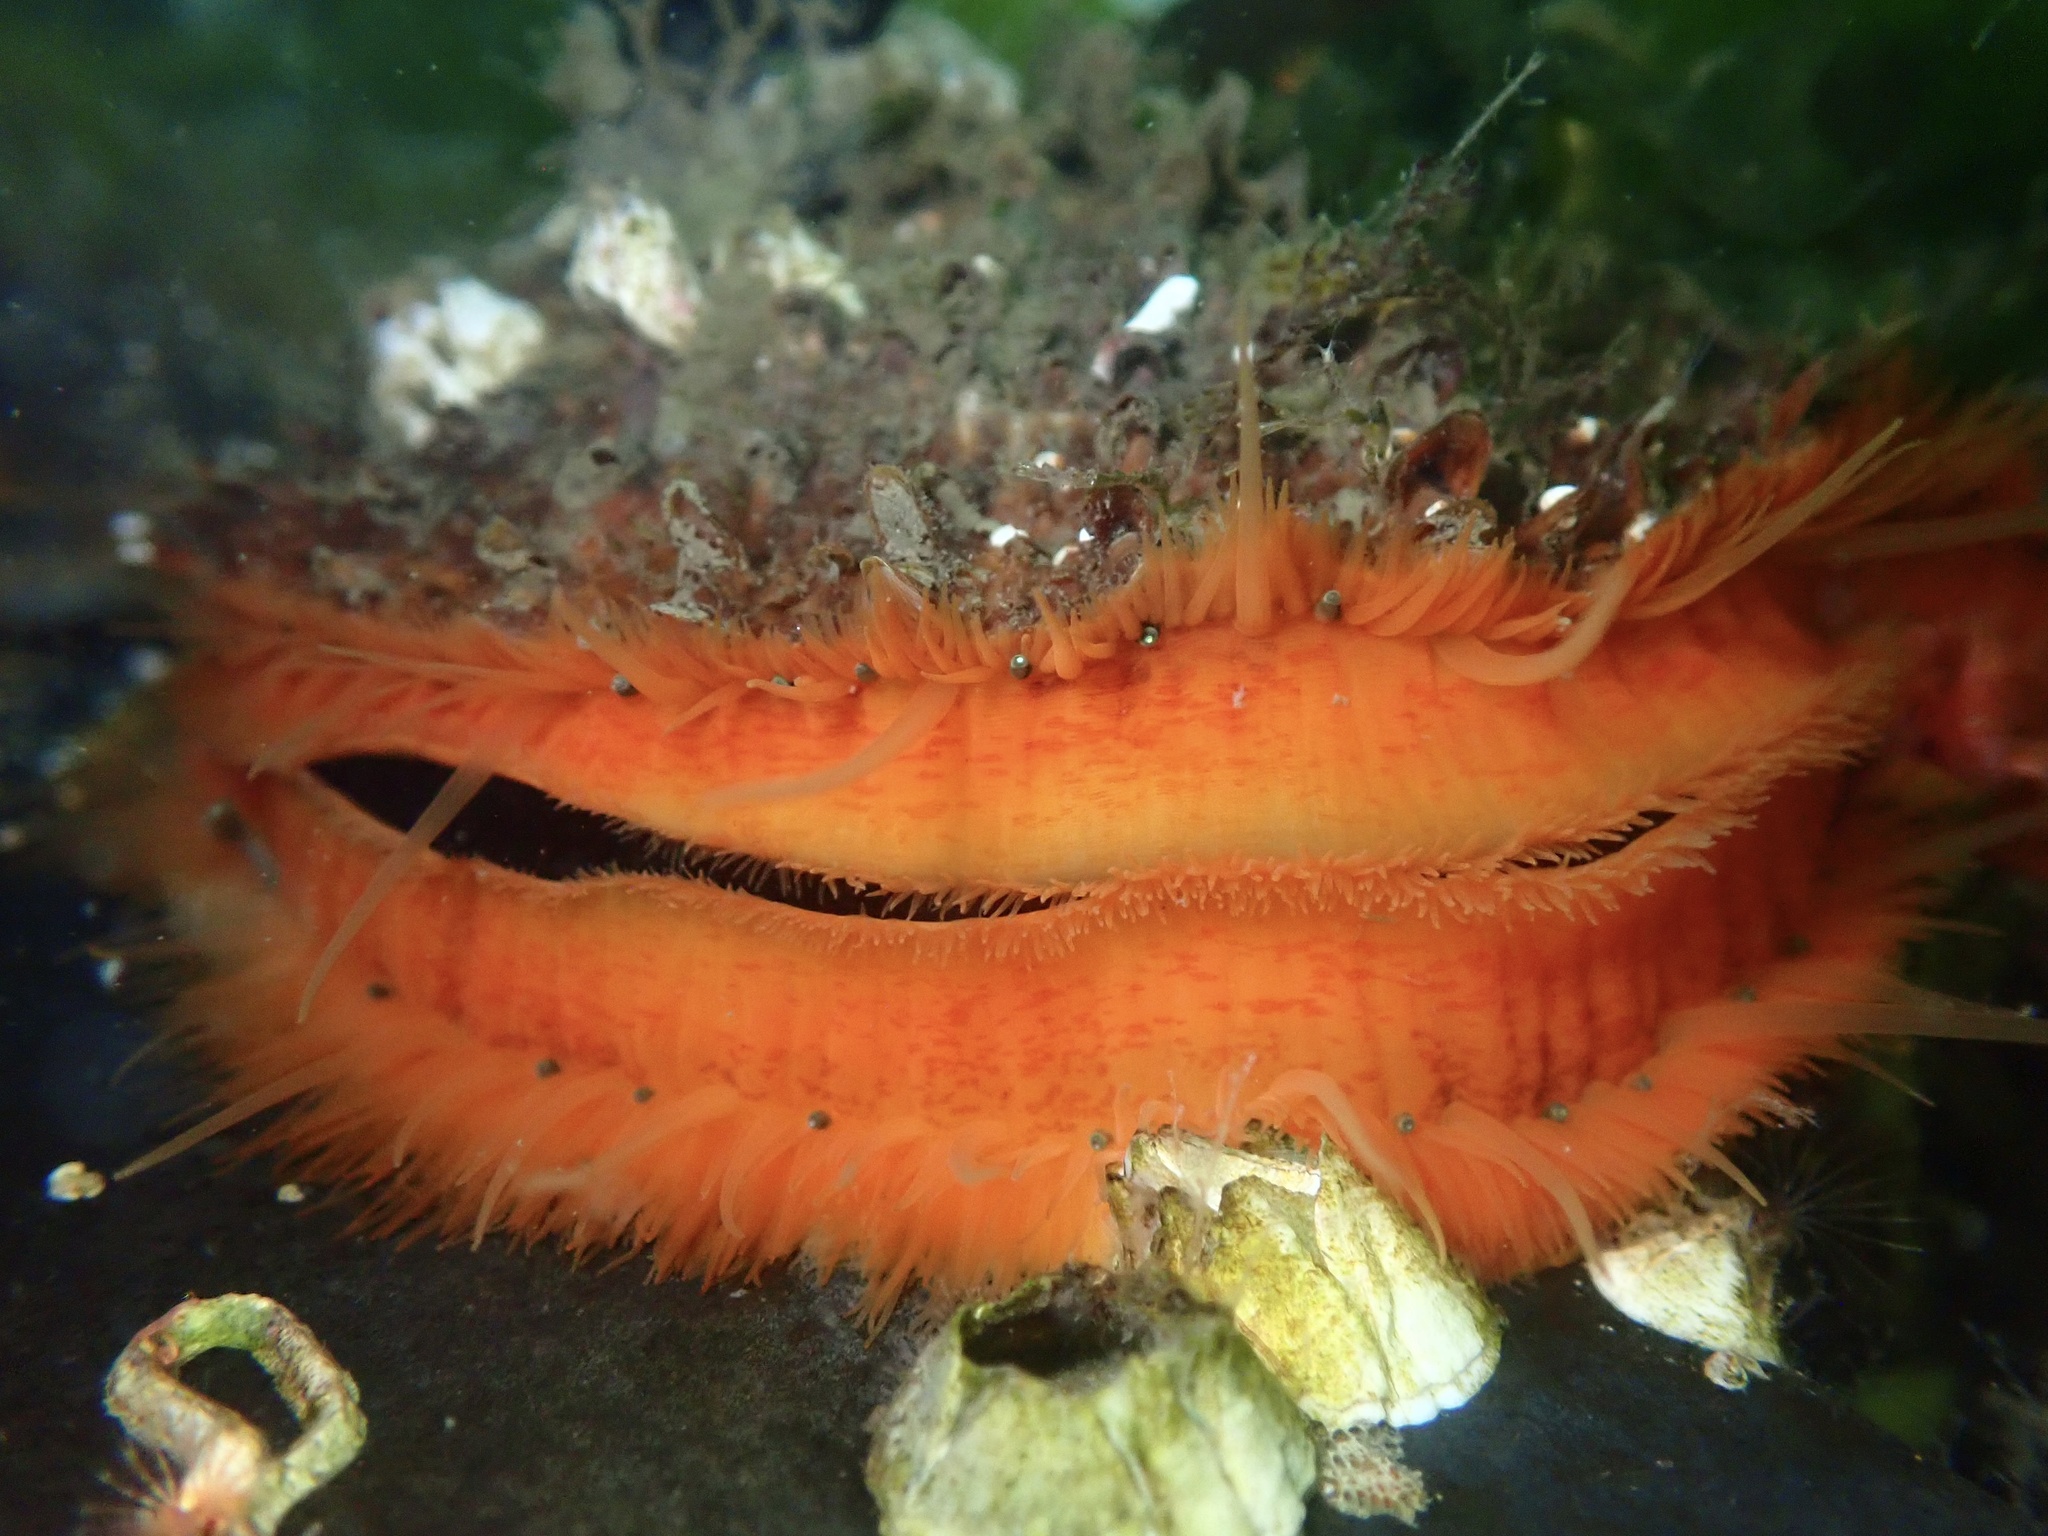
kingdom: Animalia
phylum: Mollusca
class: Bivalvia
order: Pectinida
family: Pectinidae
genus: Crassadoma
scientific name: Crassadoma gigantea
